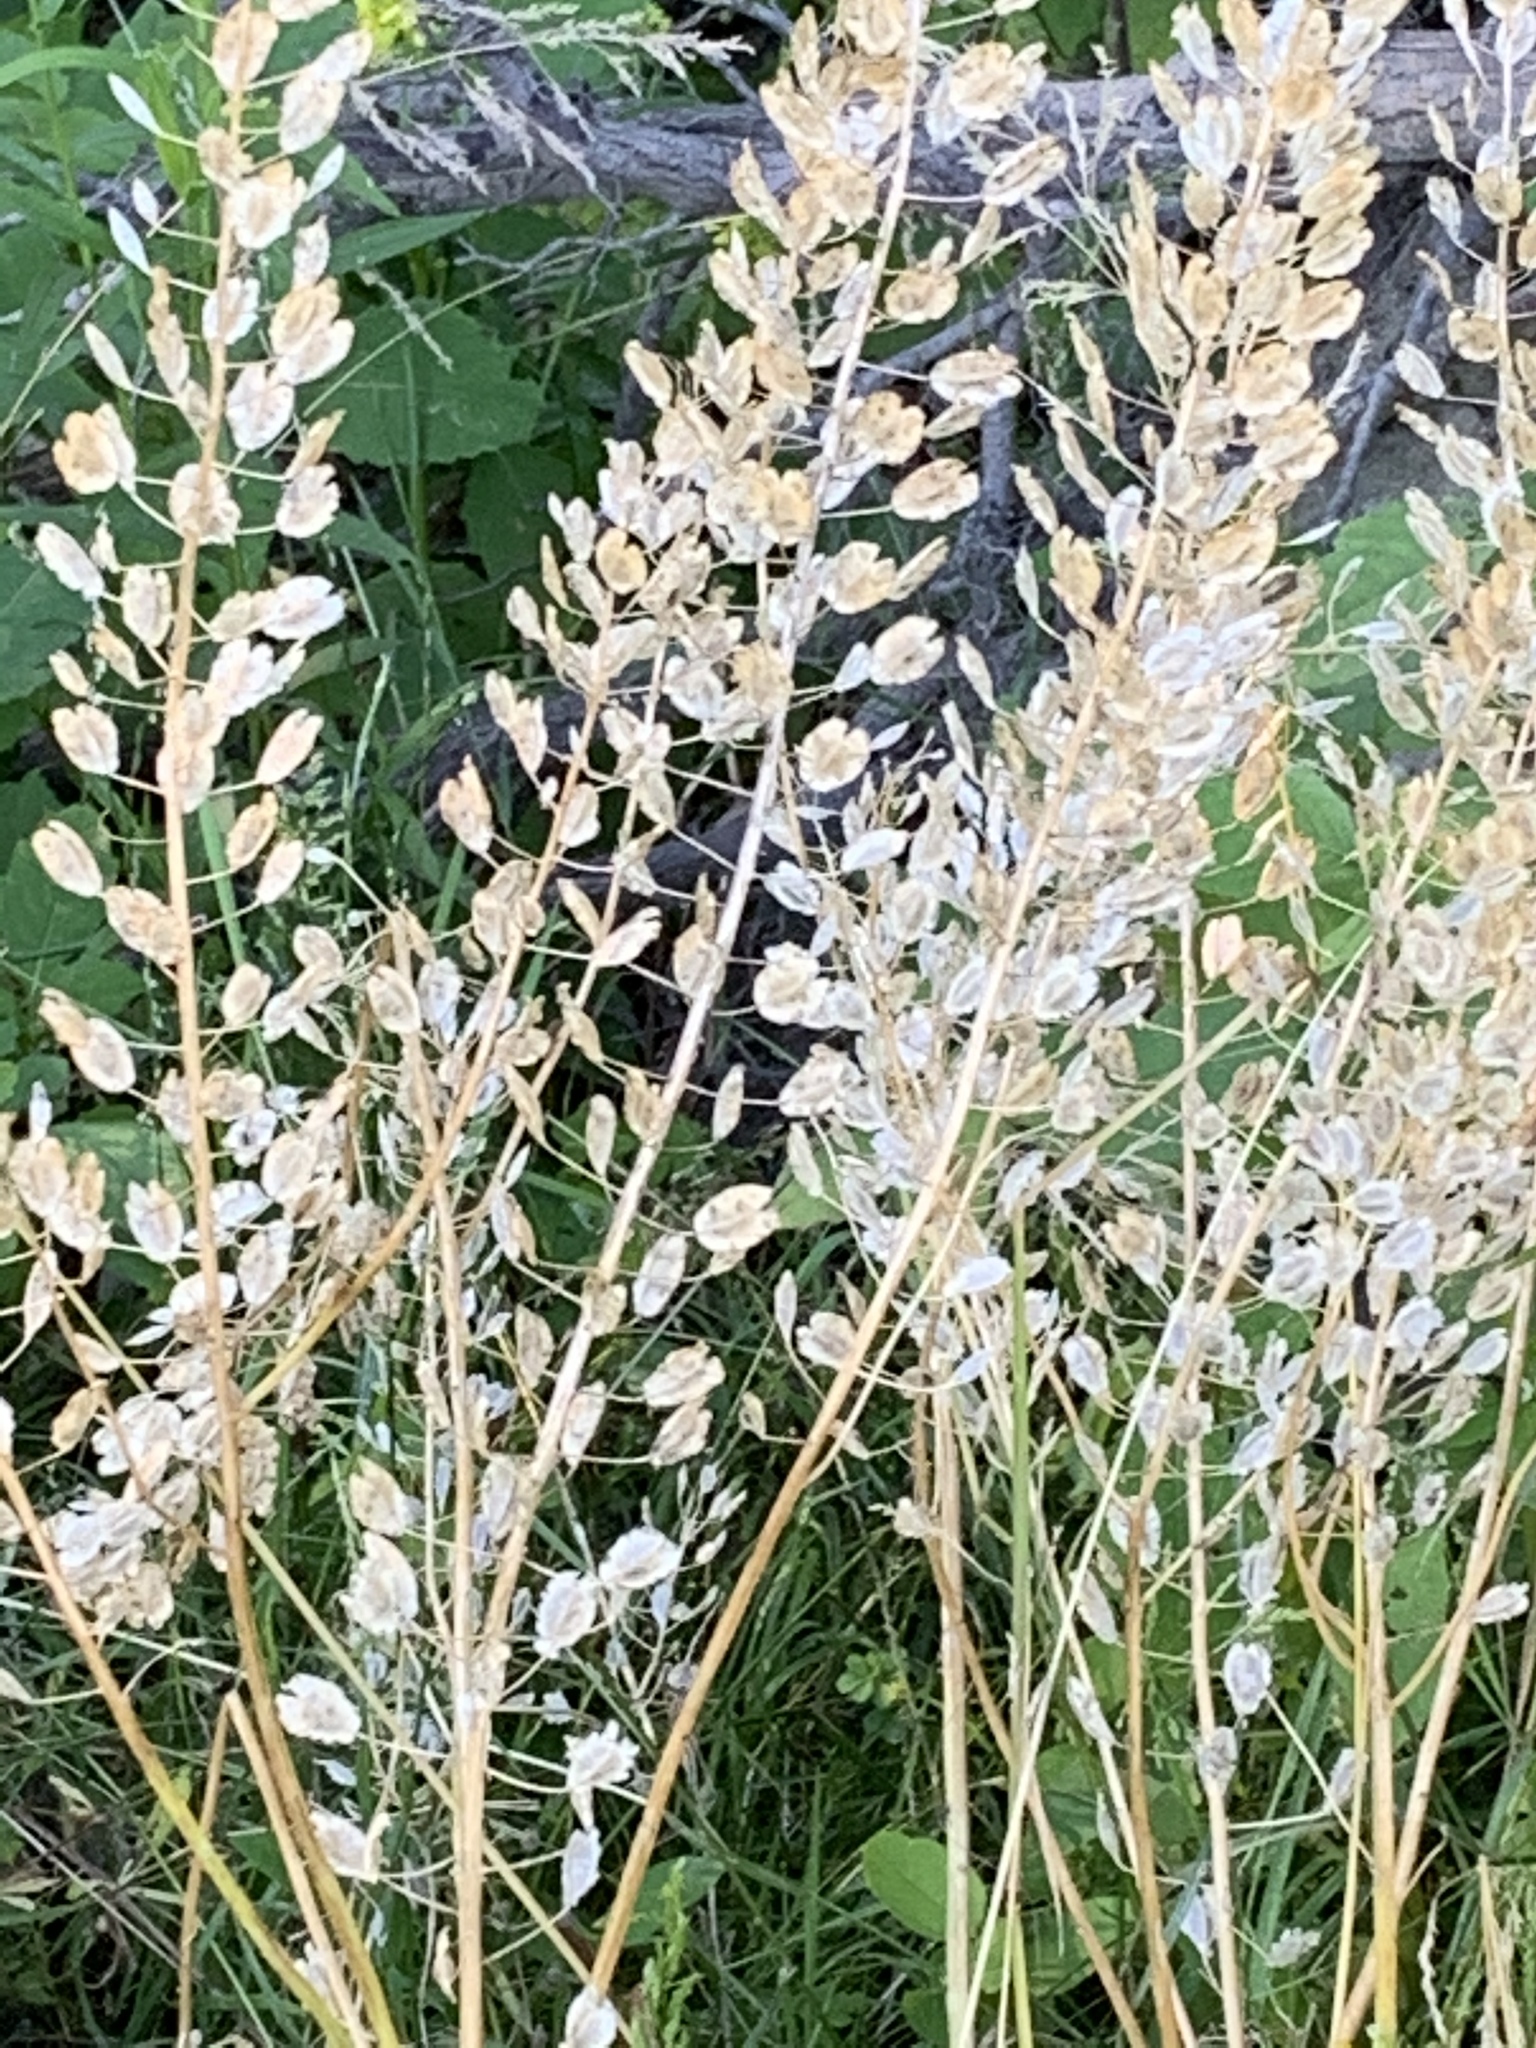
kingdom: Plantae
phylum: Tracheophyta
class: Magnoliopsida
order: Brassicales
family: Brassicaceae
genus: Thlaspi
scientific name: Thlaspi arvense
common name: Field pennycress
